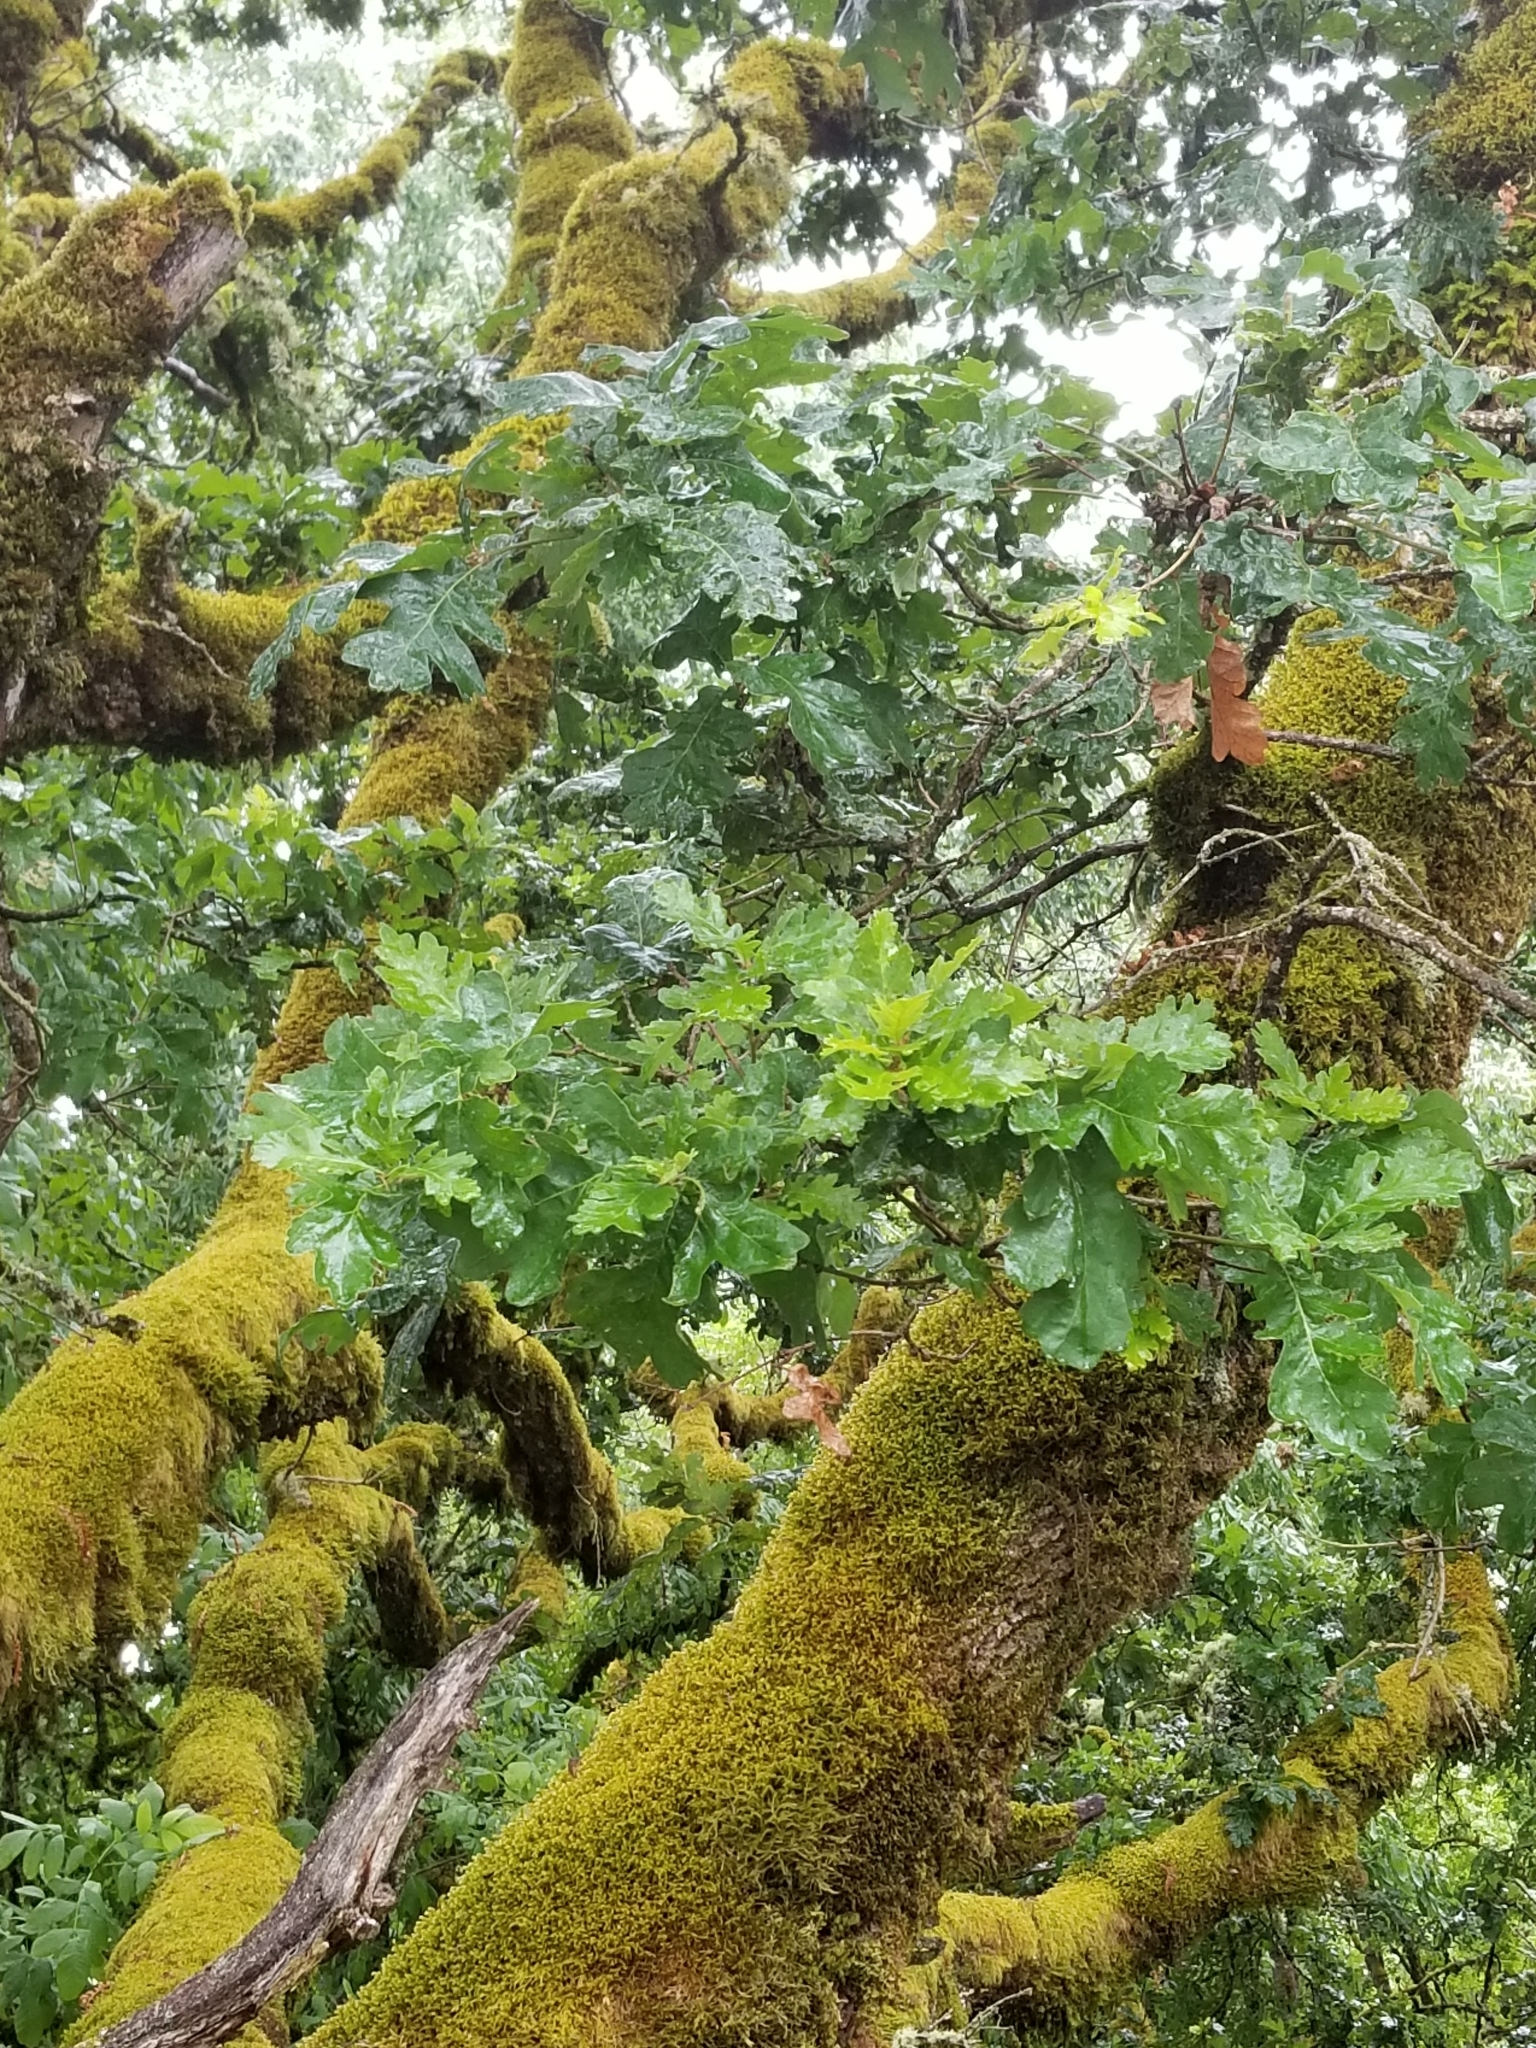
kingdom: Plantae
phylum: Tracheophyta
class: Magnoliopsida
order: Fagales
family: Fagaceae
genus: Quercus
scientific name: Quercus garryana
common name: Garry oak
